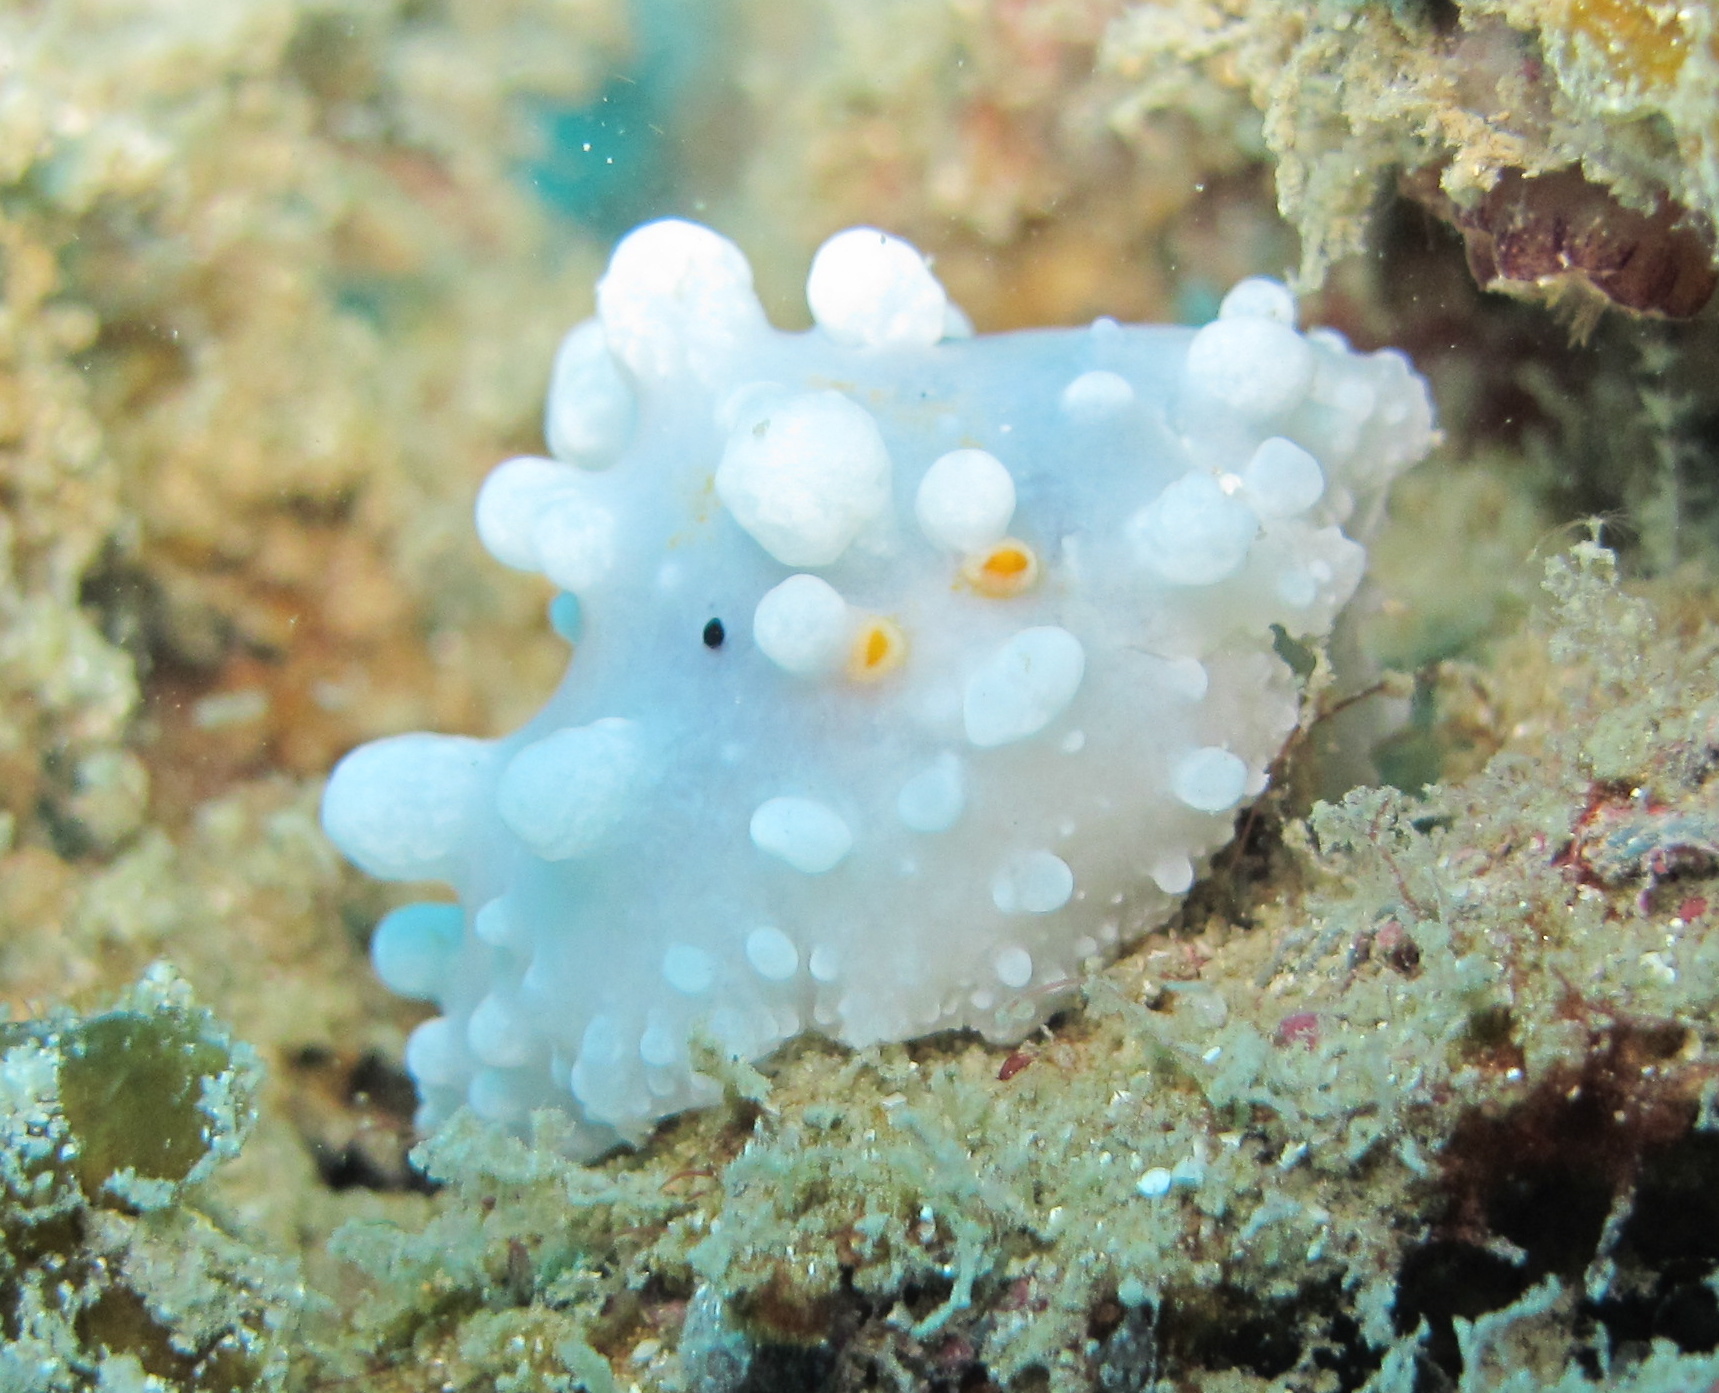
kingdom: Animalia
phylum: Mollusca
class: Gastropoda
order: Nudibranchia
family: Phyllidiidae
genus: Phyllidia
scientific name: Phyllidia ocellata
